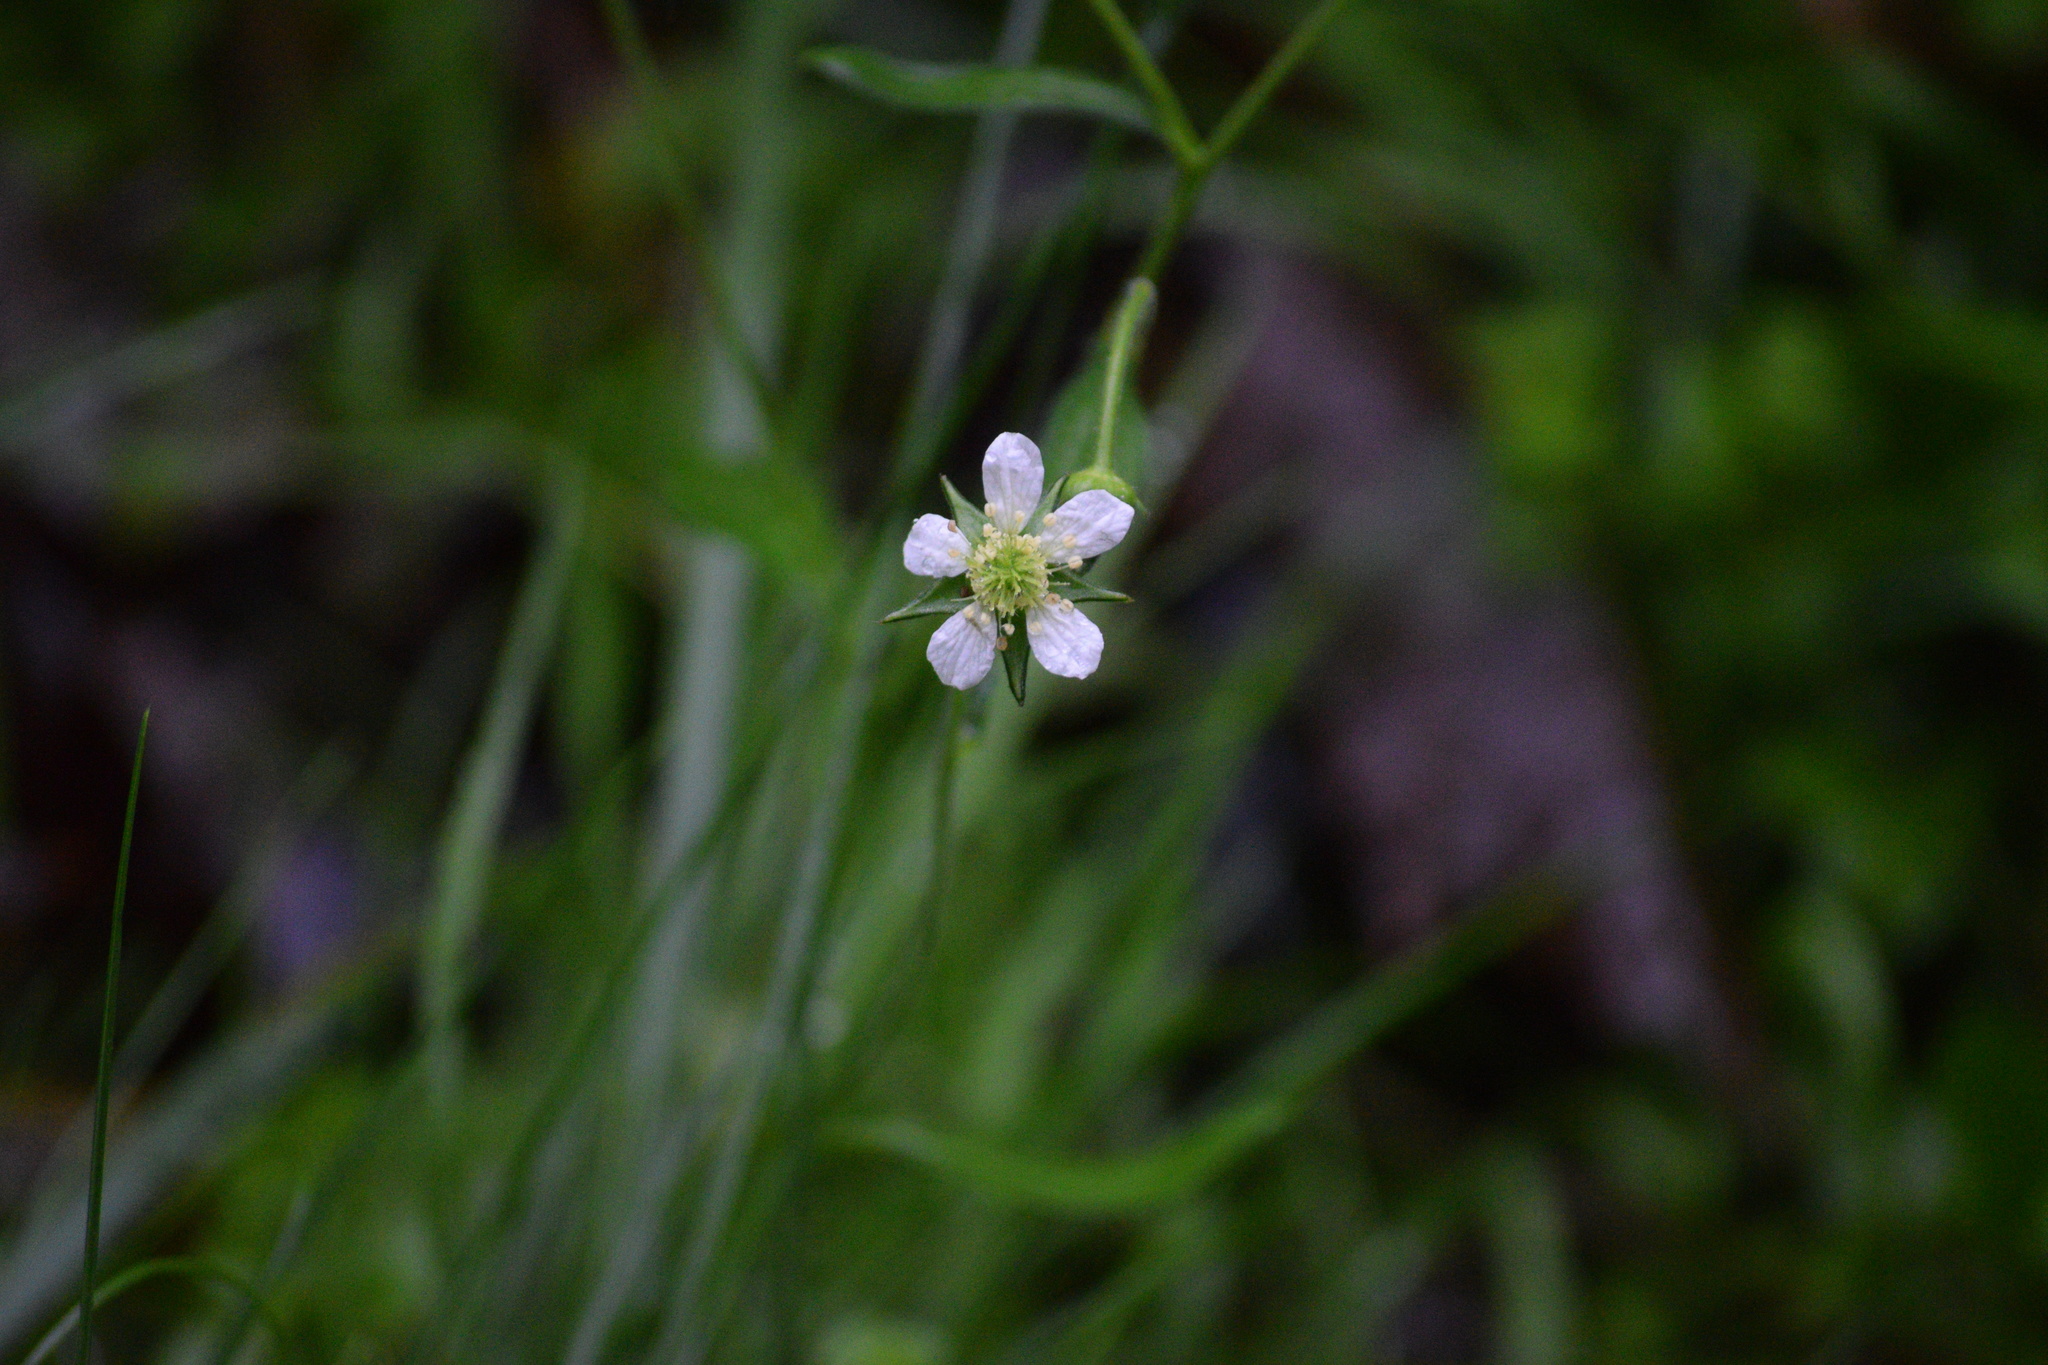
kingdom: Plantae
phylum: Tracheophyta
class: Magnoliopsida
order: Rosales
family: Rosaceae
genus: Geum
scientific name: Geum canadense
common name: White avens
